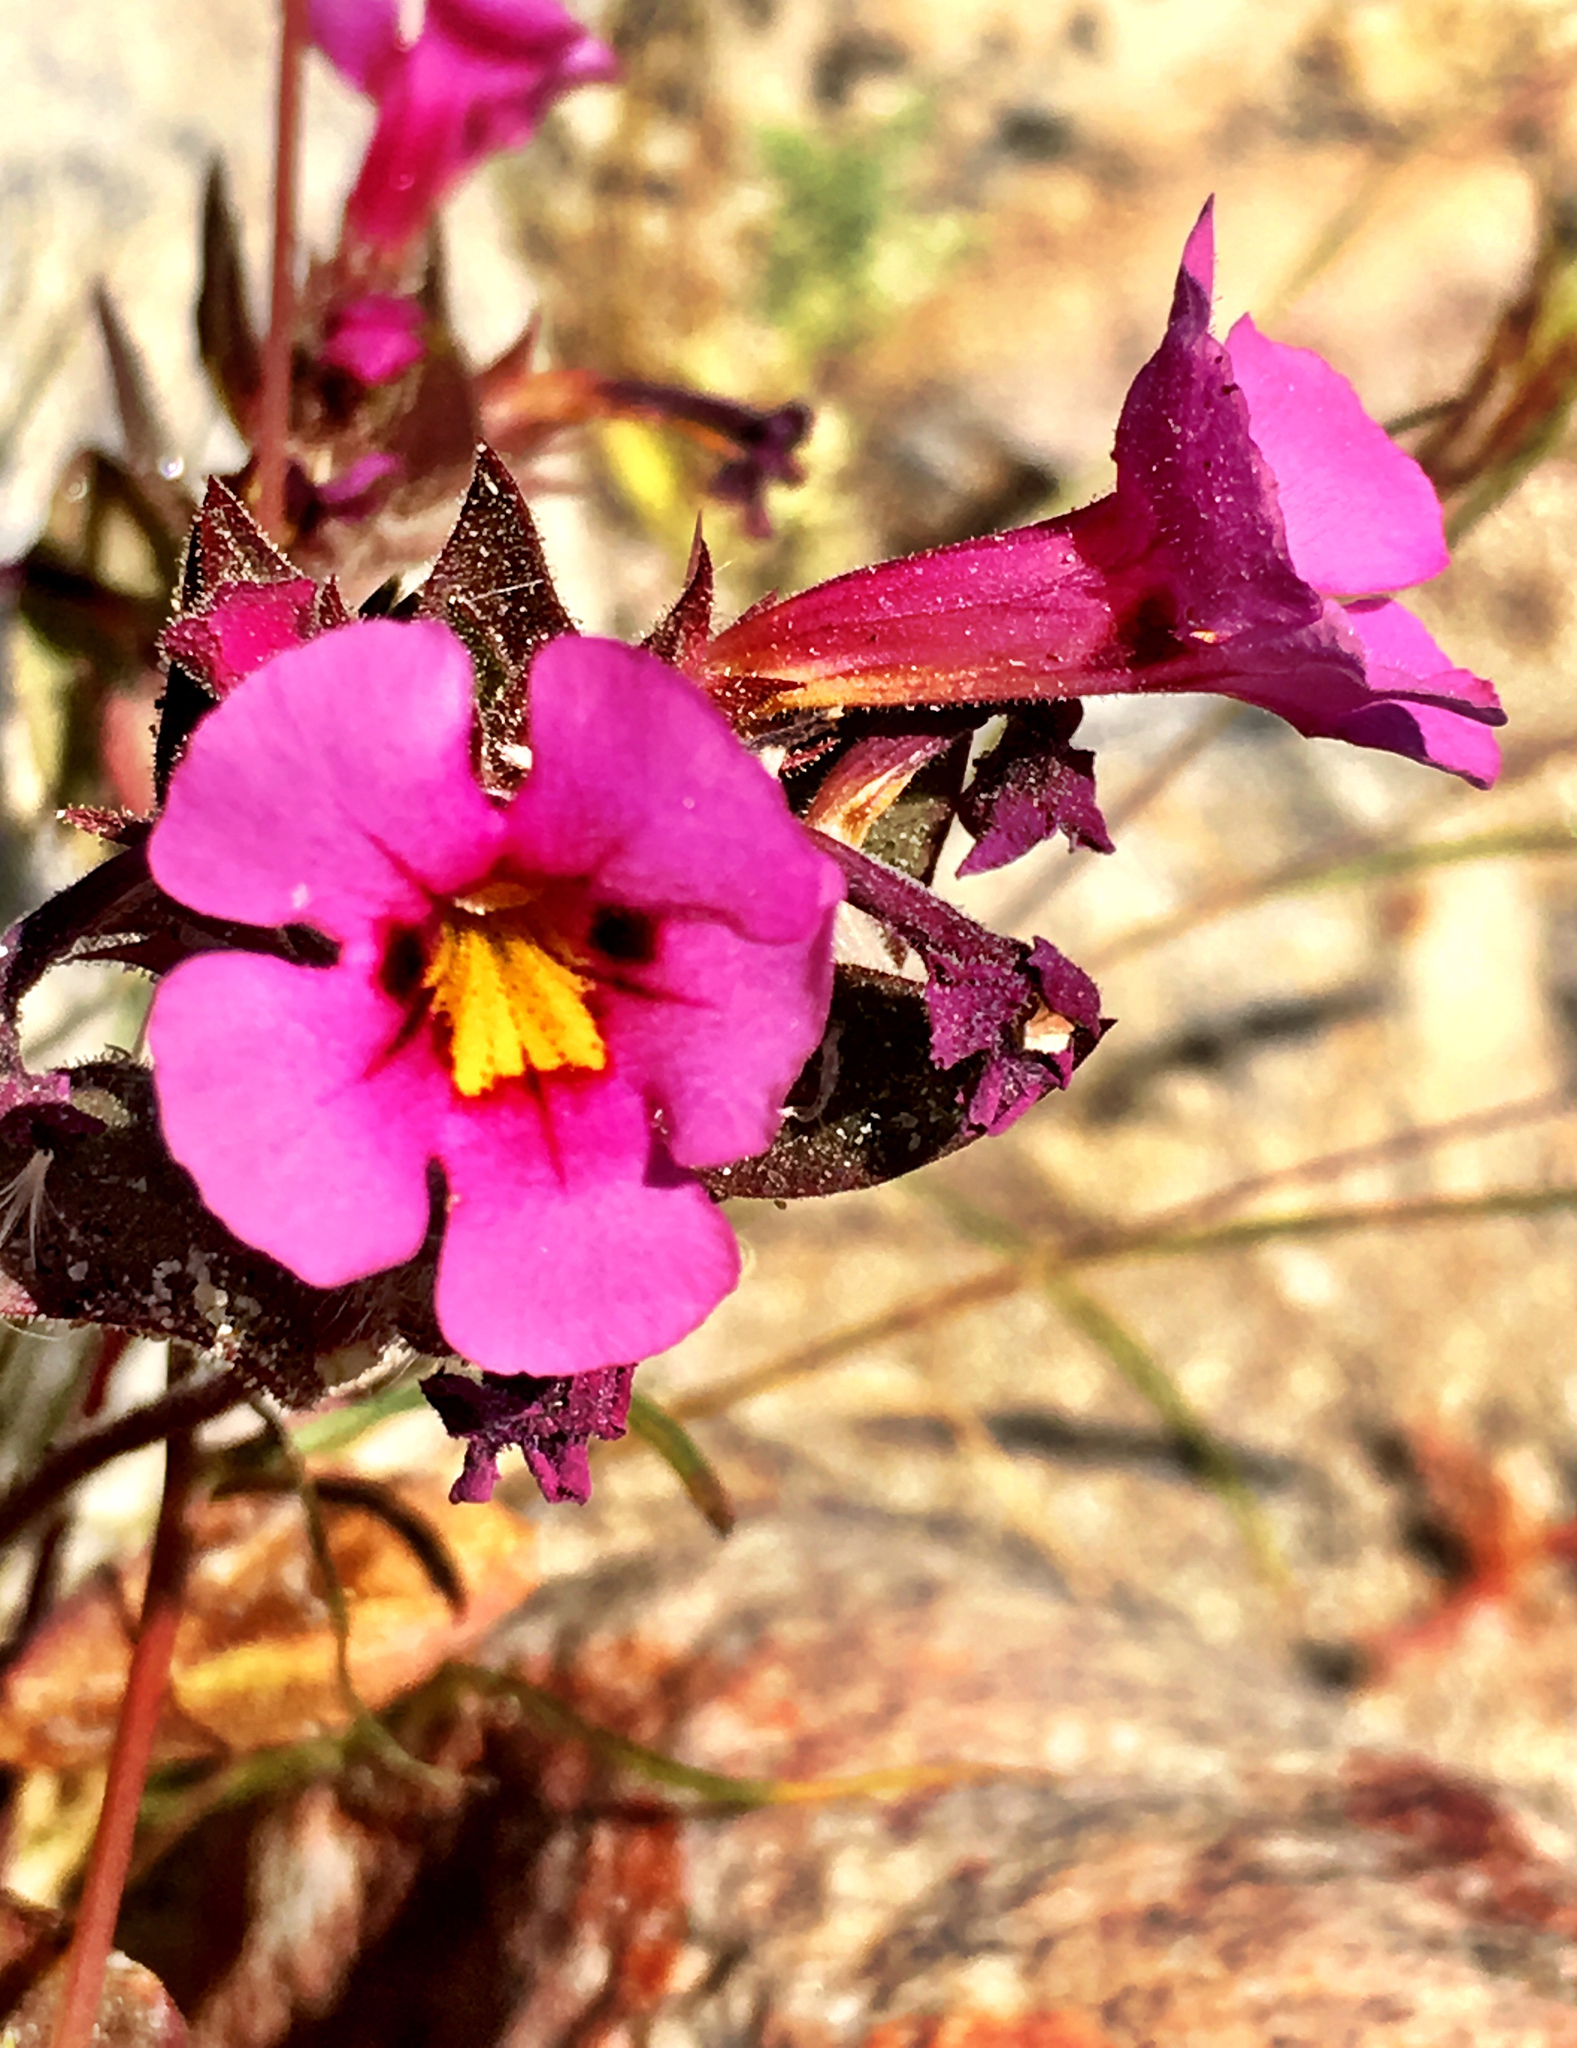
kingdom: Plantae
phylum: Tracheophyta
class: Magnoliopsida
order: Lamiales
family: Phrymaceae
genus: Diplacus
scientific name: Diplacus bigelovii
